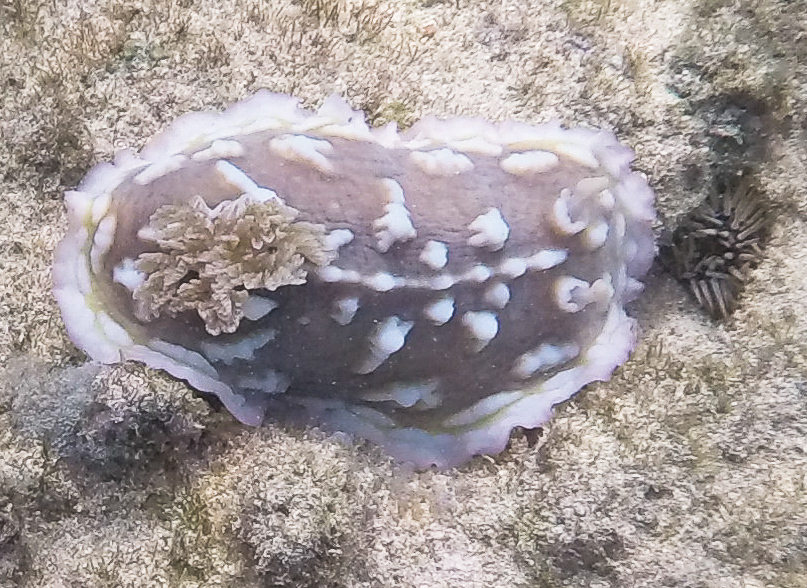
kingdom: Animalia
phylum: Mollusca
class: Gastropoda
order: Nudibranchia
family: Discodorididae
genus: Asteronotus
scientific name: Asteronotus cespitosus
